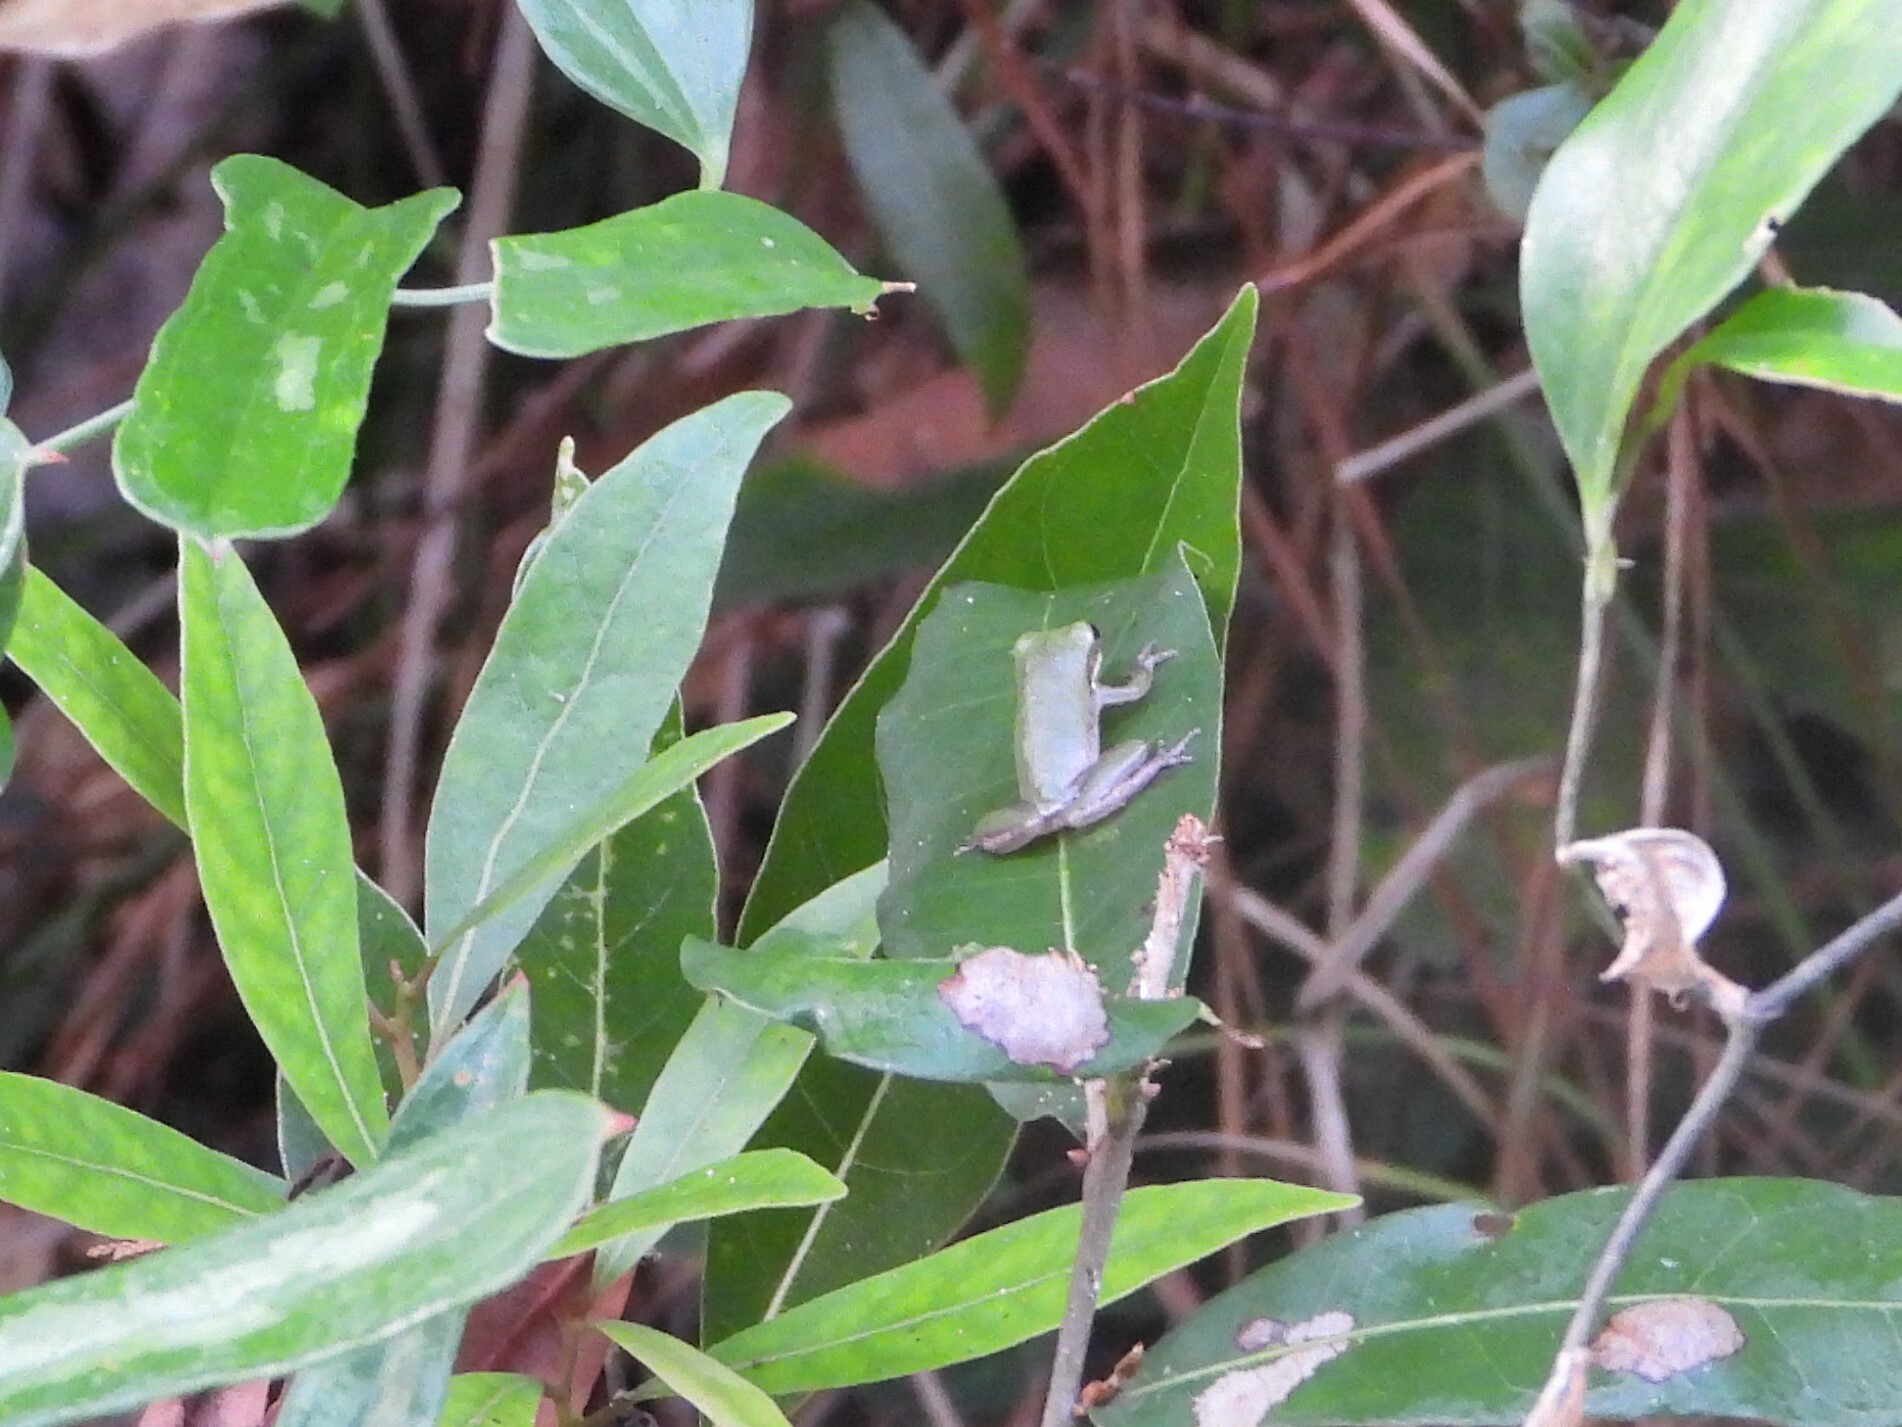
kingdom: Animalia
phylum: Chordata
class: Amphibia
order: Anura
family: Hylidae
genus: Dryophytes
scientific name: Dryophytes squirellus
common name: Squirrel treefrog
